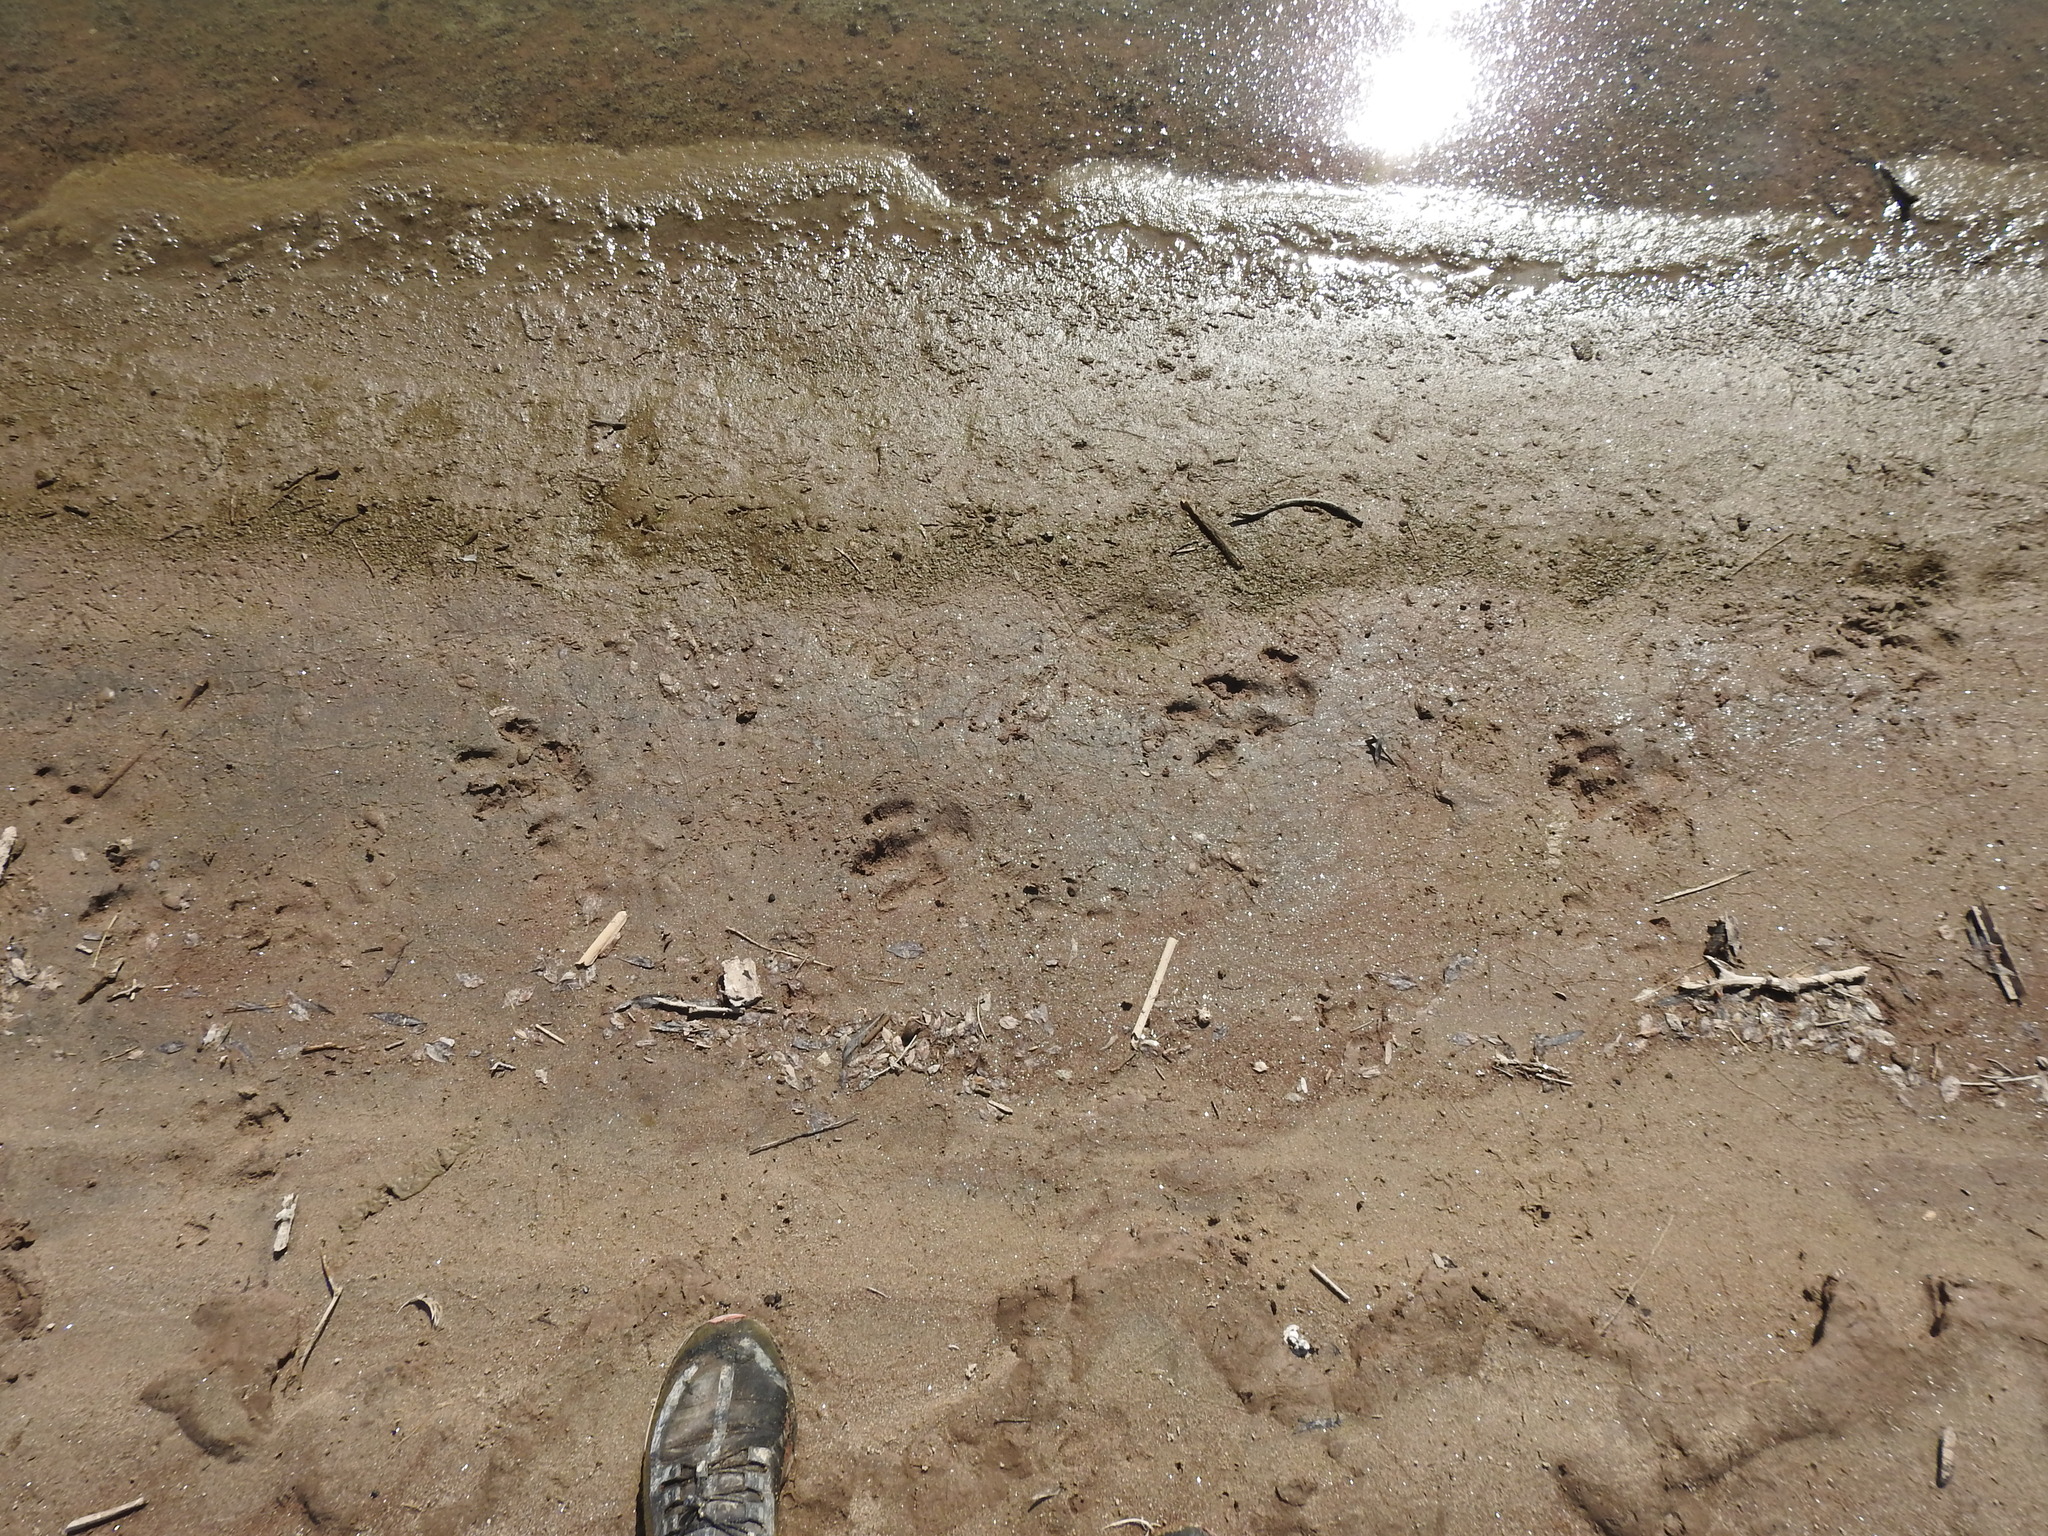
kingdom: Animalia
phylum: Chordata
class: Mammalia
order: Rodentia
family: Caviidae
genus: Hydrochoerus
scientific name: Hydrochoerus hydrochaeris
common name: Capybara
